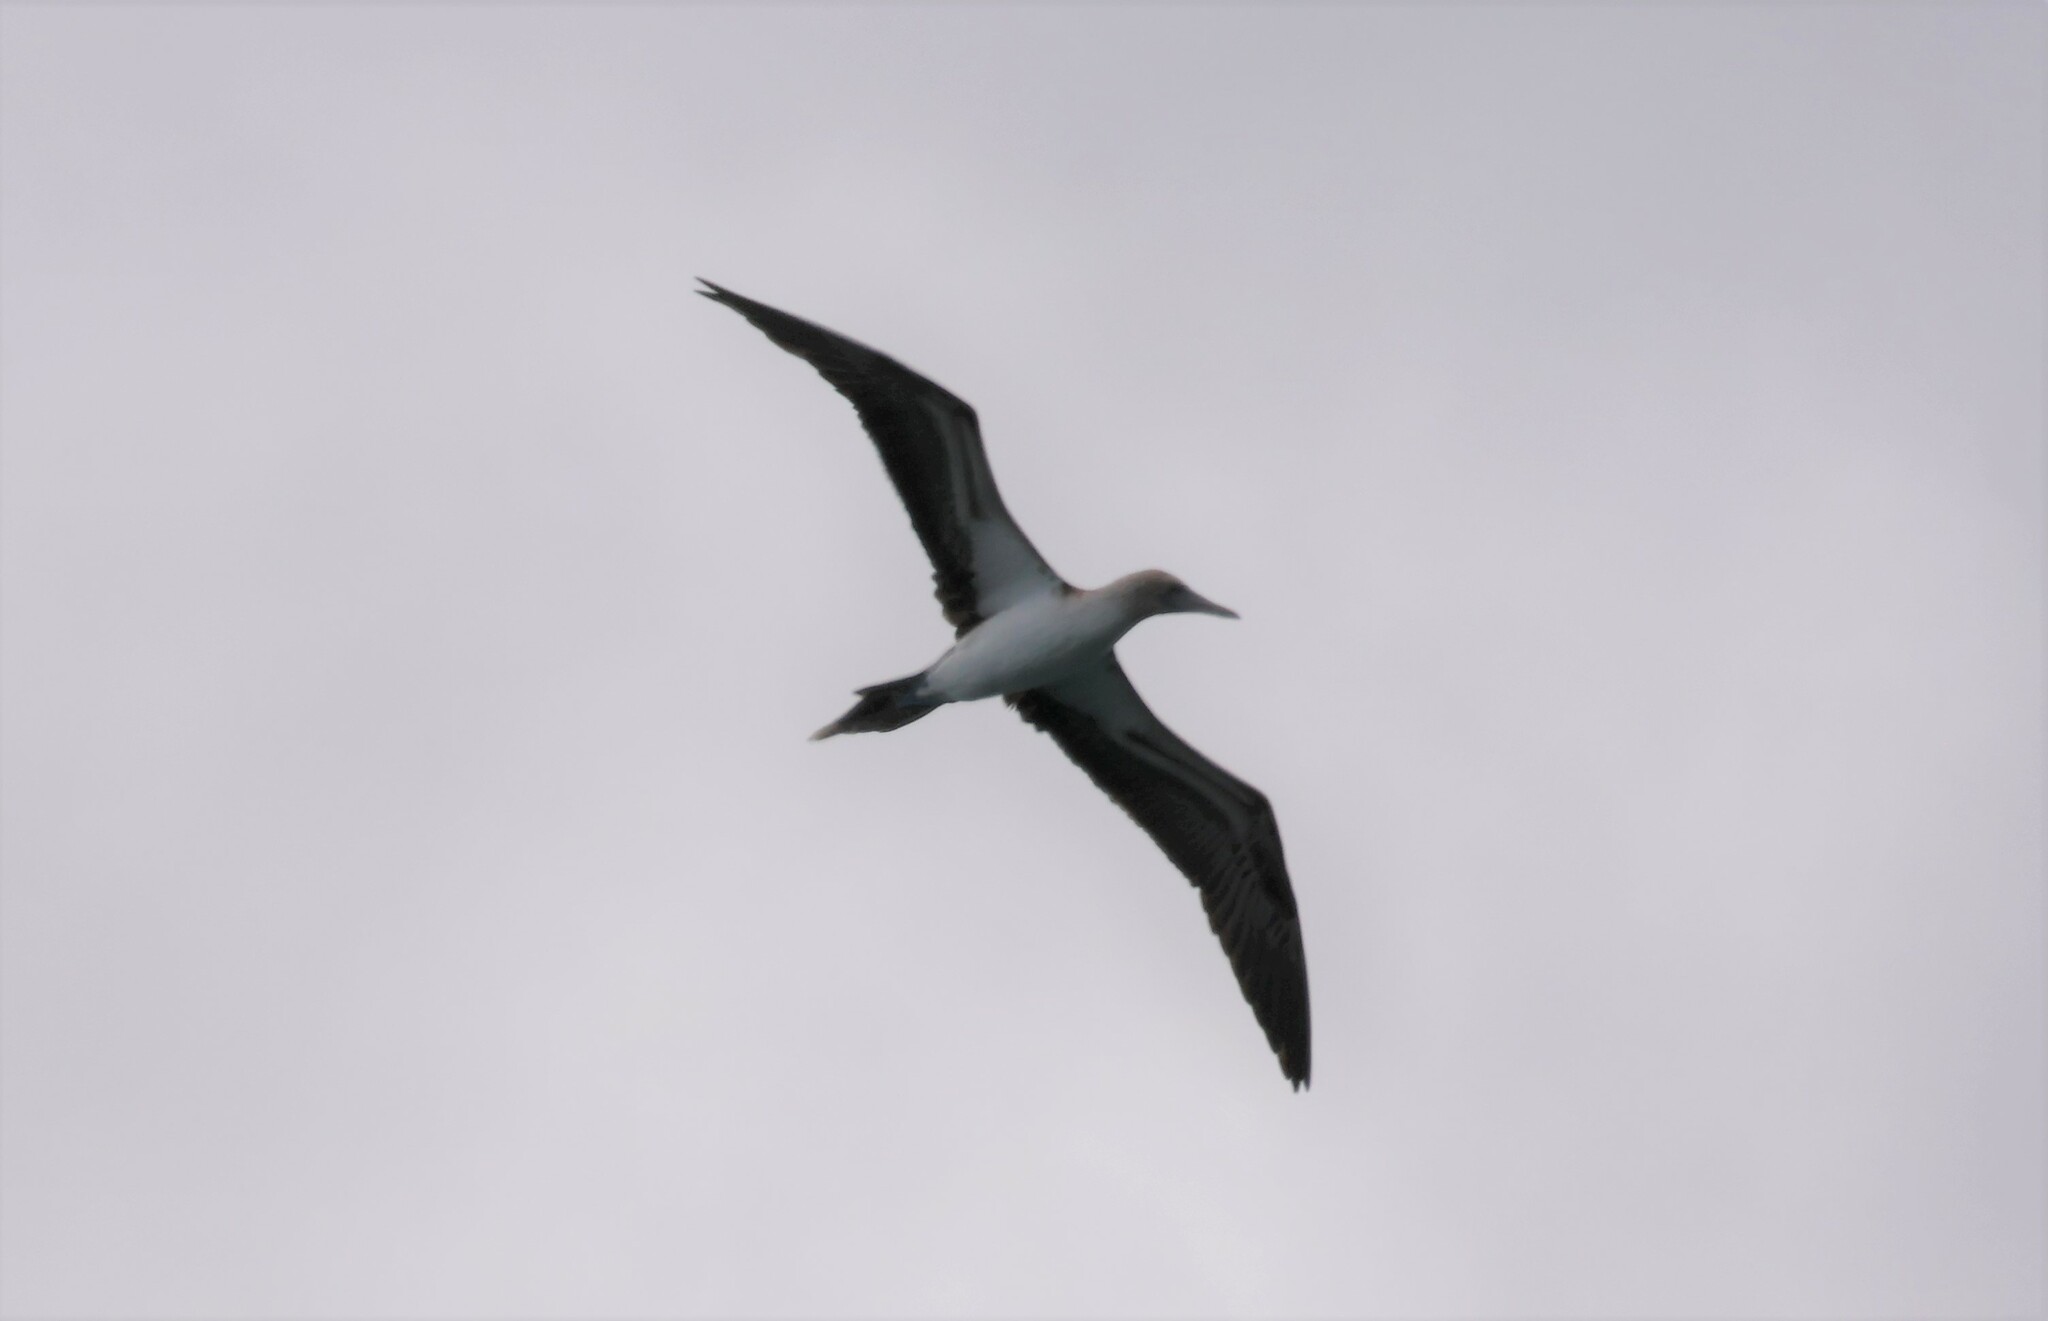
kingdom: Animalia
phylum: Chordata
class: Aves
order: Suliformes
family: Sulidae
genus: Sula
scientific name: Sula nebouxii
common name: Blue-footed booby
